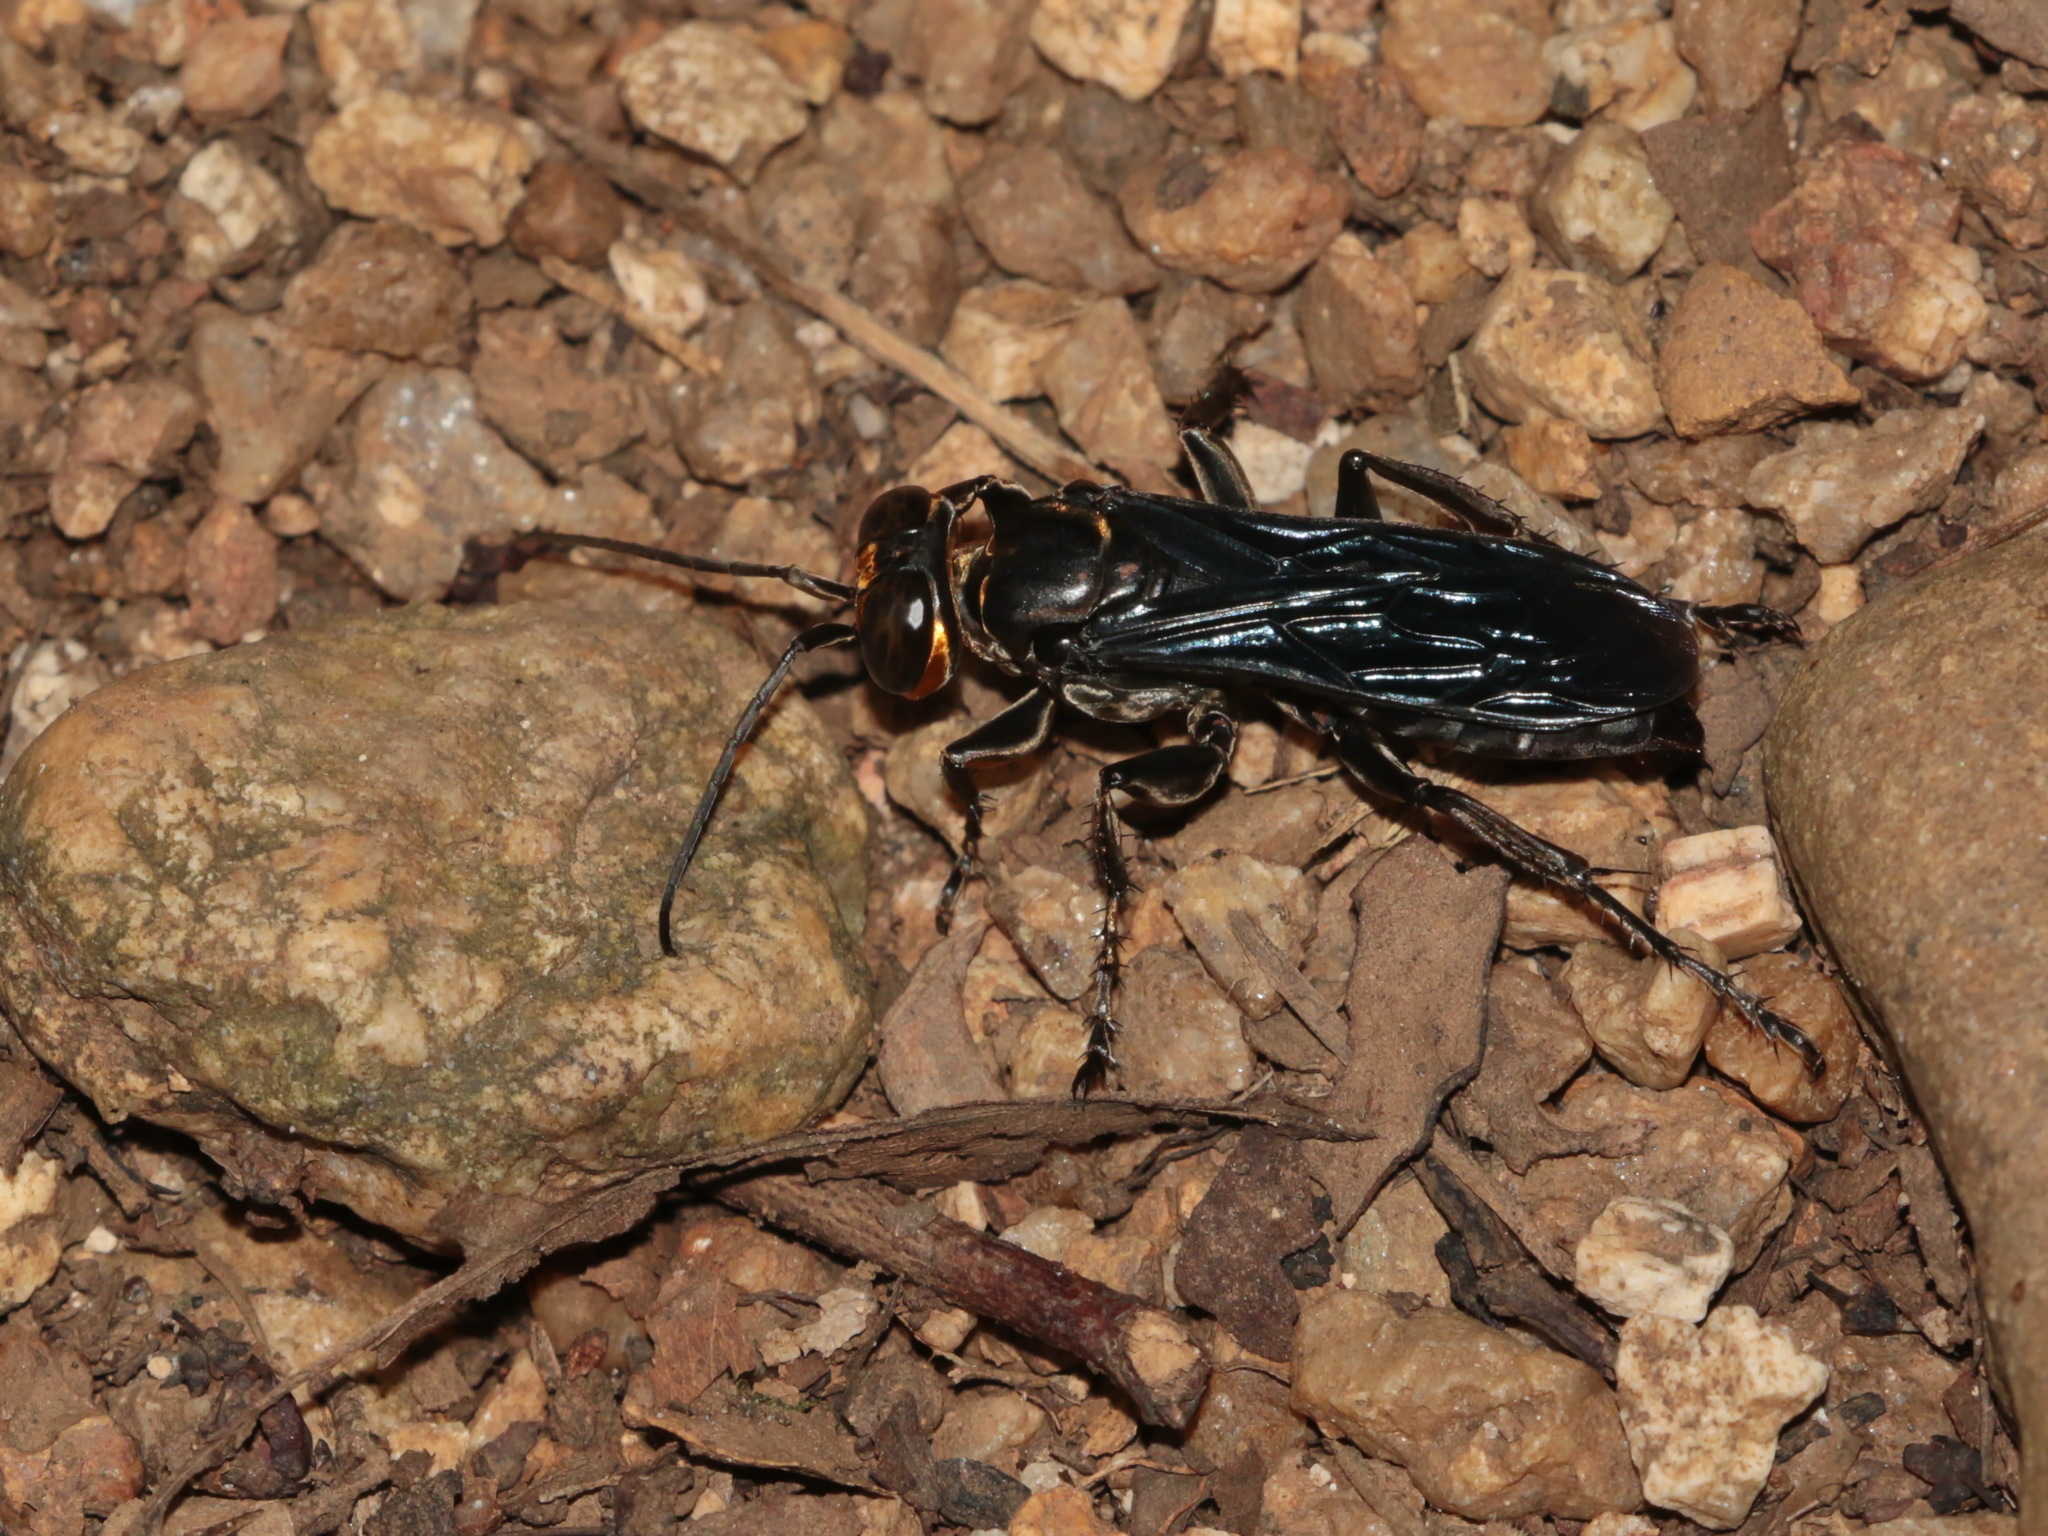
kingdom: Animalia
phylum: Arthropoda
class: Insecta
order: Hymenoptera
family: Crabronidae
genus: Liris
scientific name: Liris ducalis
